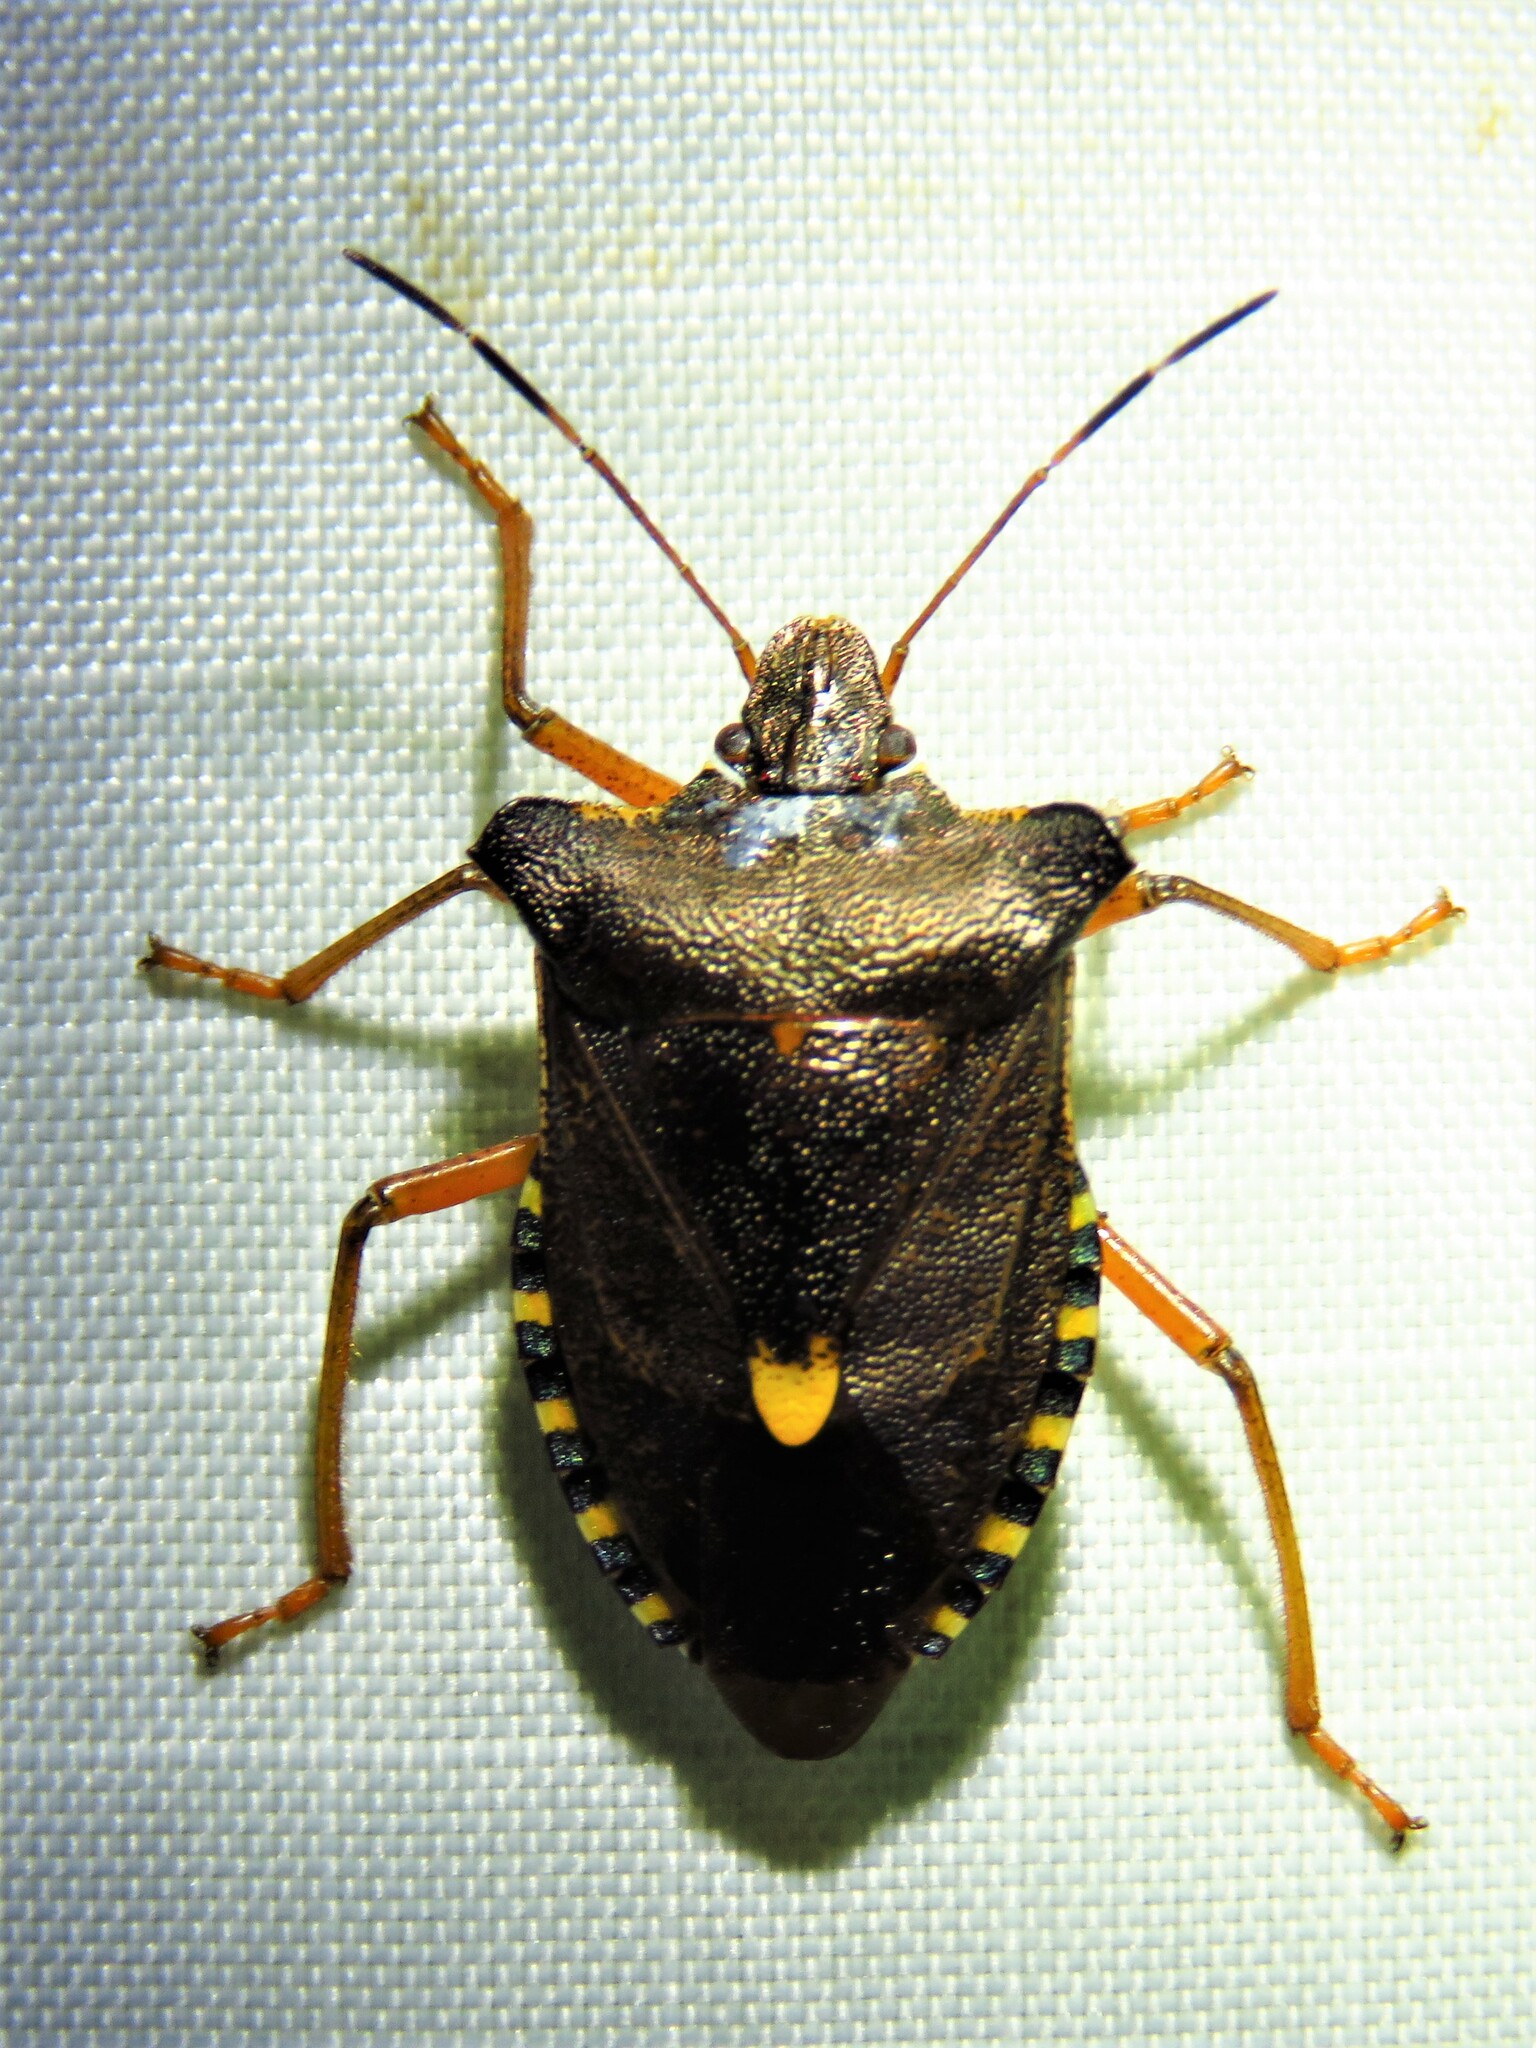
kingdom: Animalia
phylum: Arthropoda
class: Insecta
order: Hemiptera
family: Pentatomidae
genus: Pentatoma
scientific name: Pentatoma rufipes
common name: Forest bug
